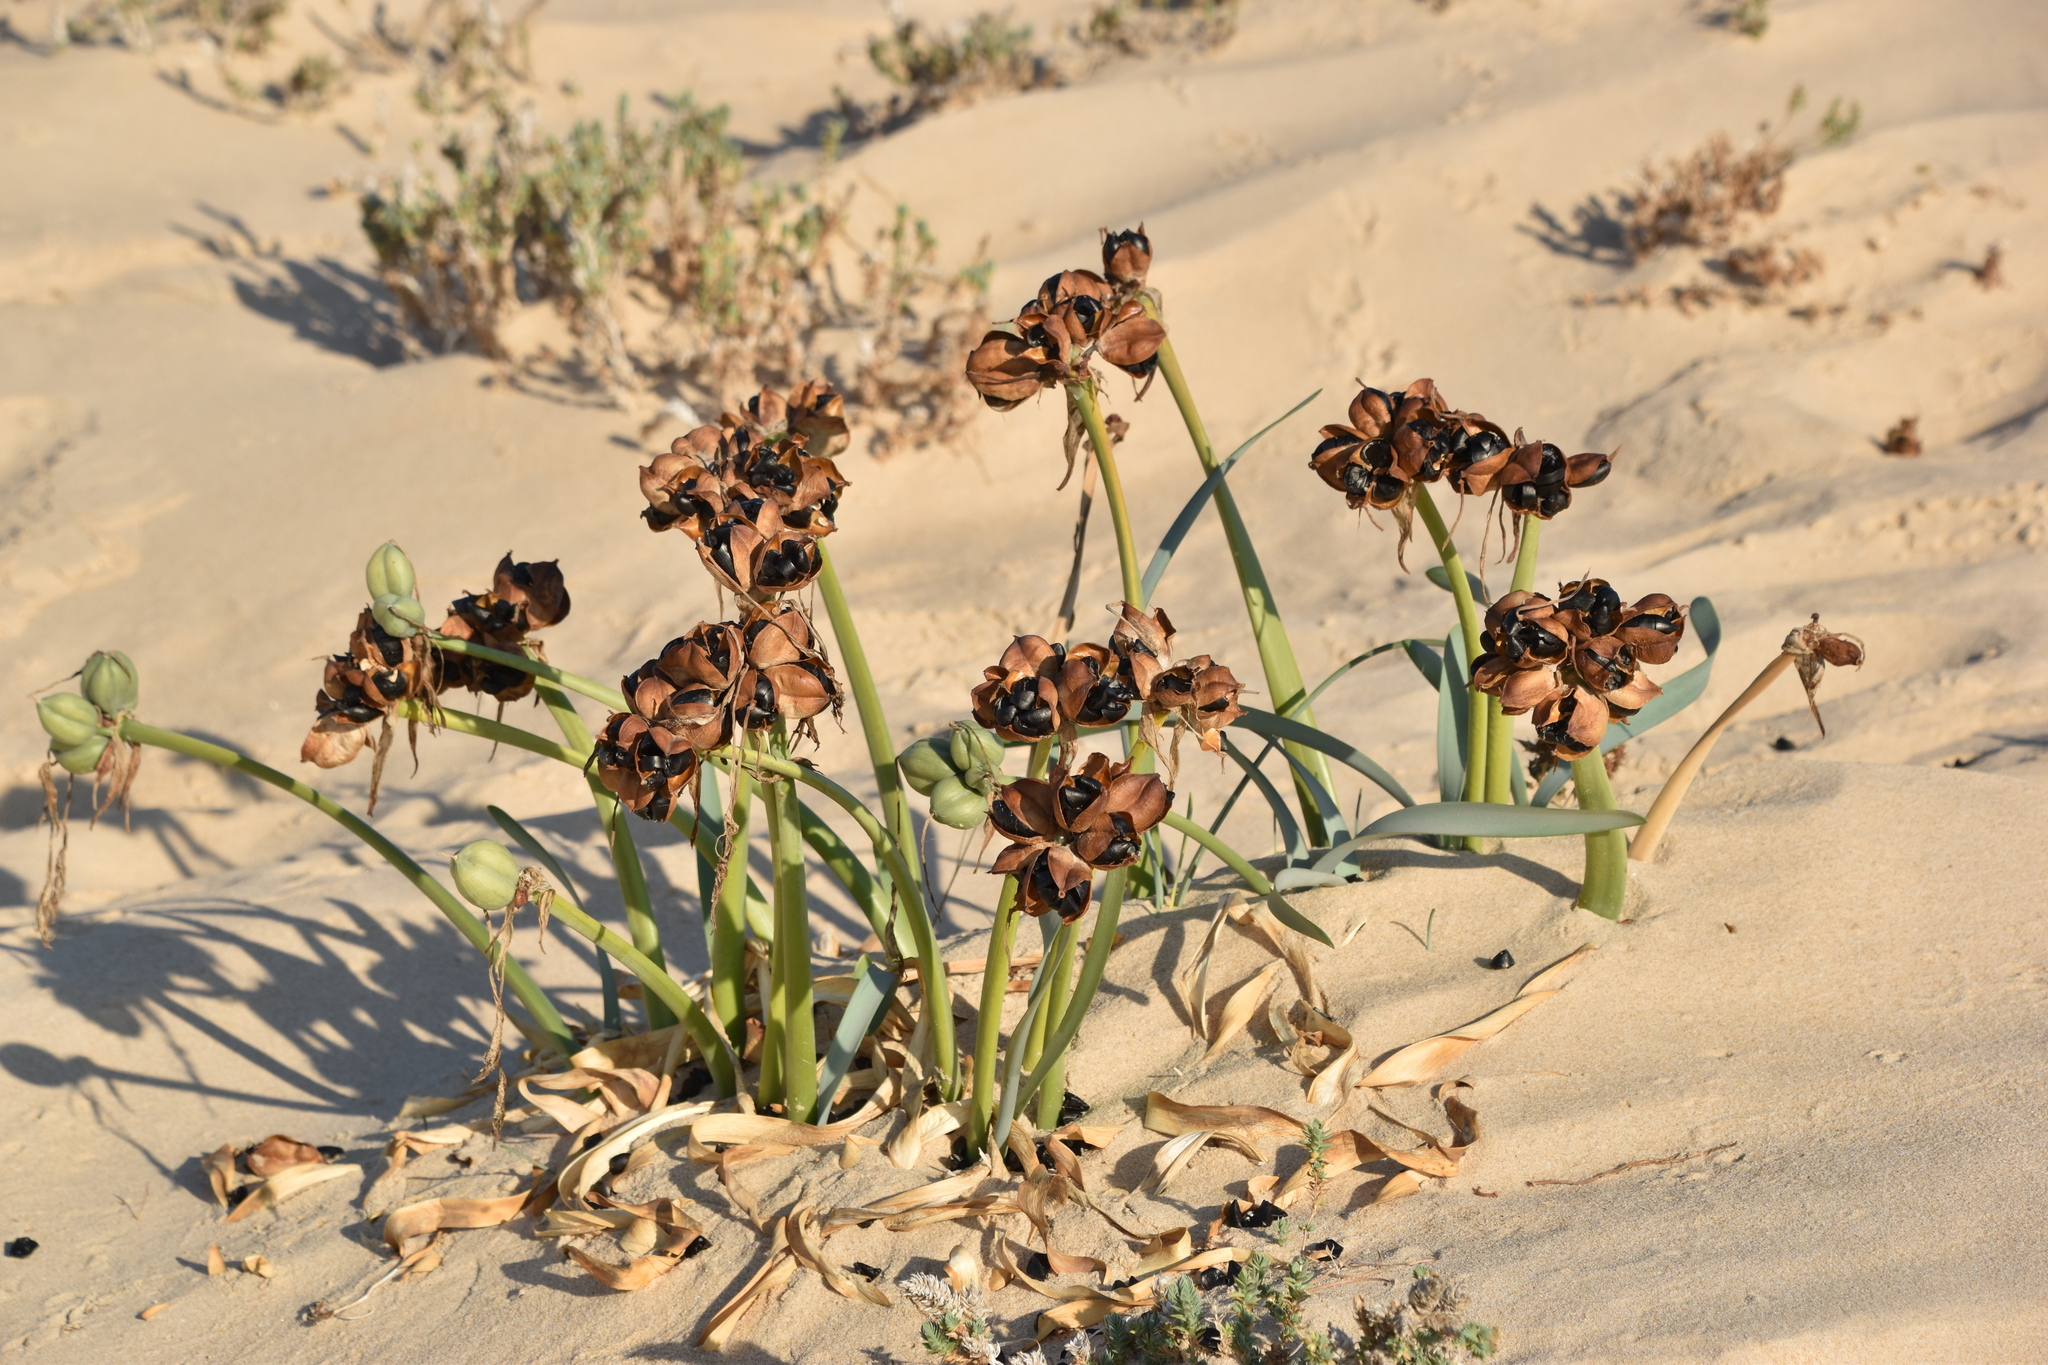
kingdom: Plantae
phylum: Tracheophyta
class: Liliopsida
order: Asparagales
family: Amaryllidaceae
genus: Pancratium
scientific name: Pancratium maritimum
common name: Sea-daffodil
